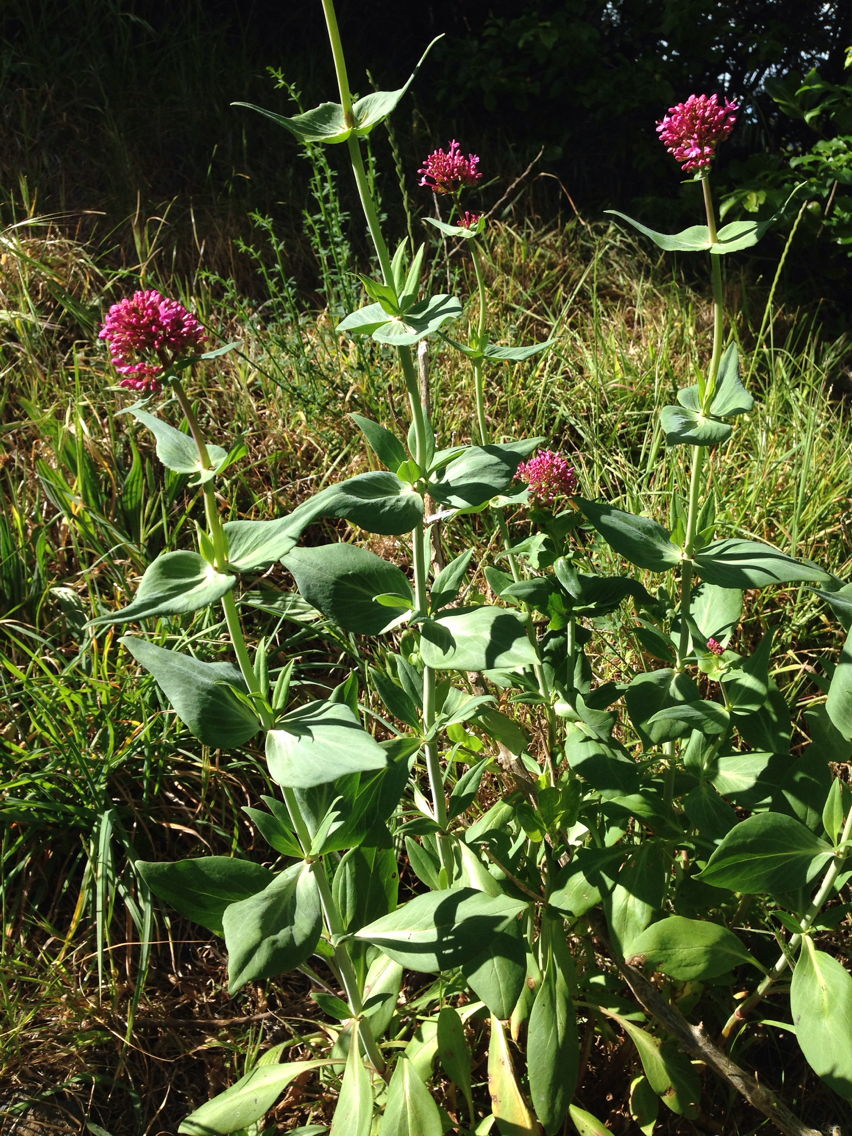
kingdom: Plantae
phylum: Tracheophyta
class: Magnoliopsida
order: Dipsacales
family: Caprifoliaceae
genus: Centranthus
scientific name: Centranthus ruber
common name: Red valerian
